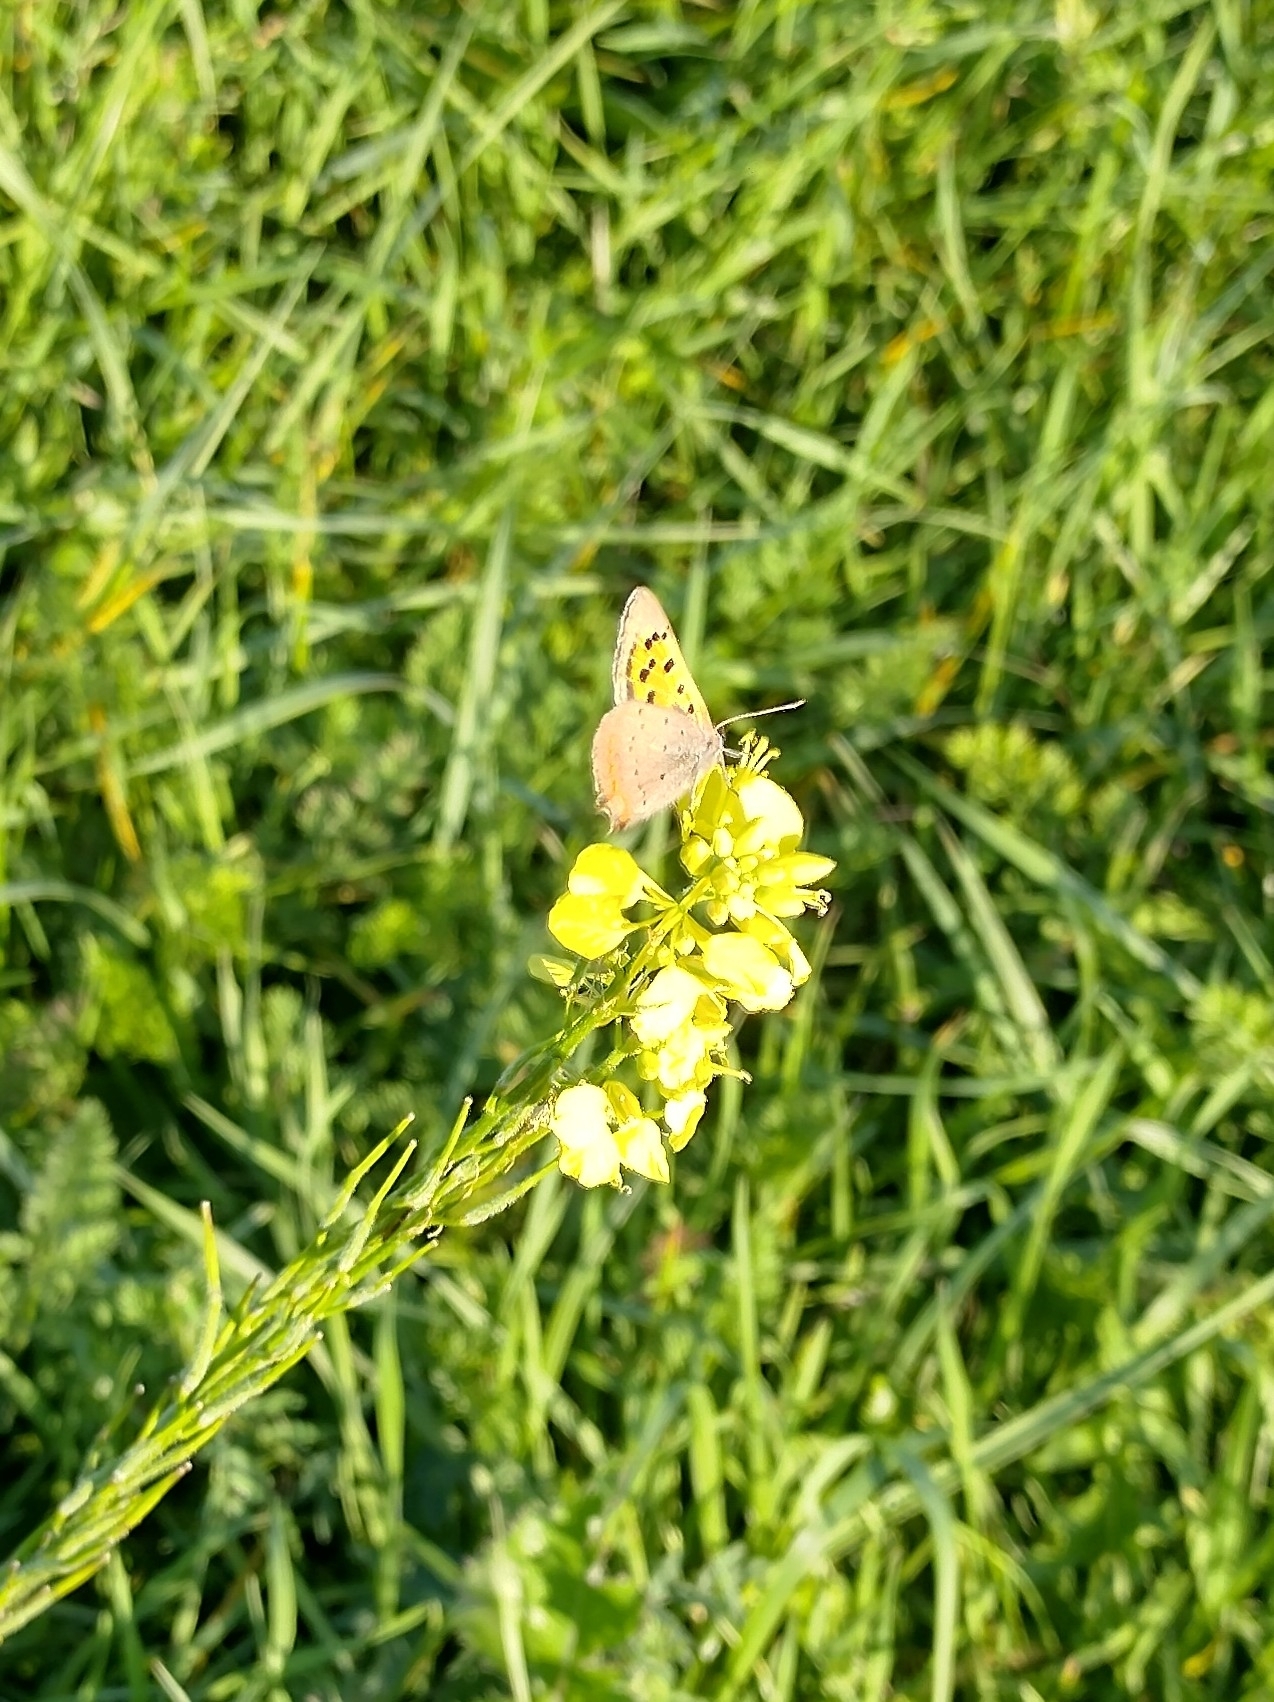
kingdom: Animalia
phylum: Arthropoda
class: Insecta
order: Lepidoptera
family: Lycaenidae
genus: Lycaena
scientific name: Lycaena phlaeas
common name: Small copper
